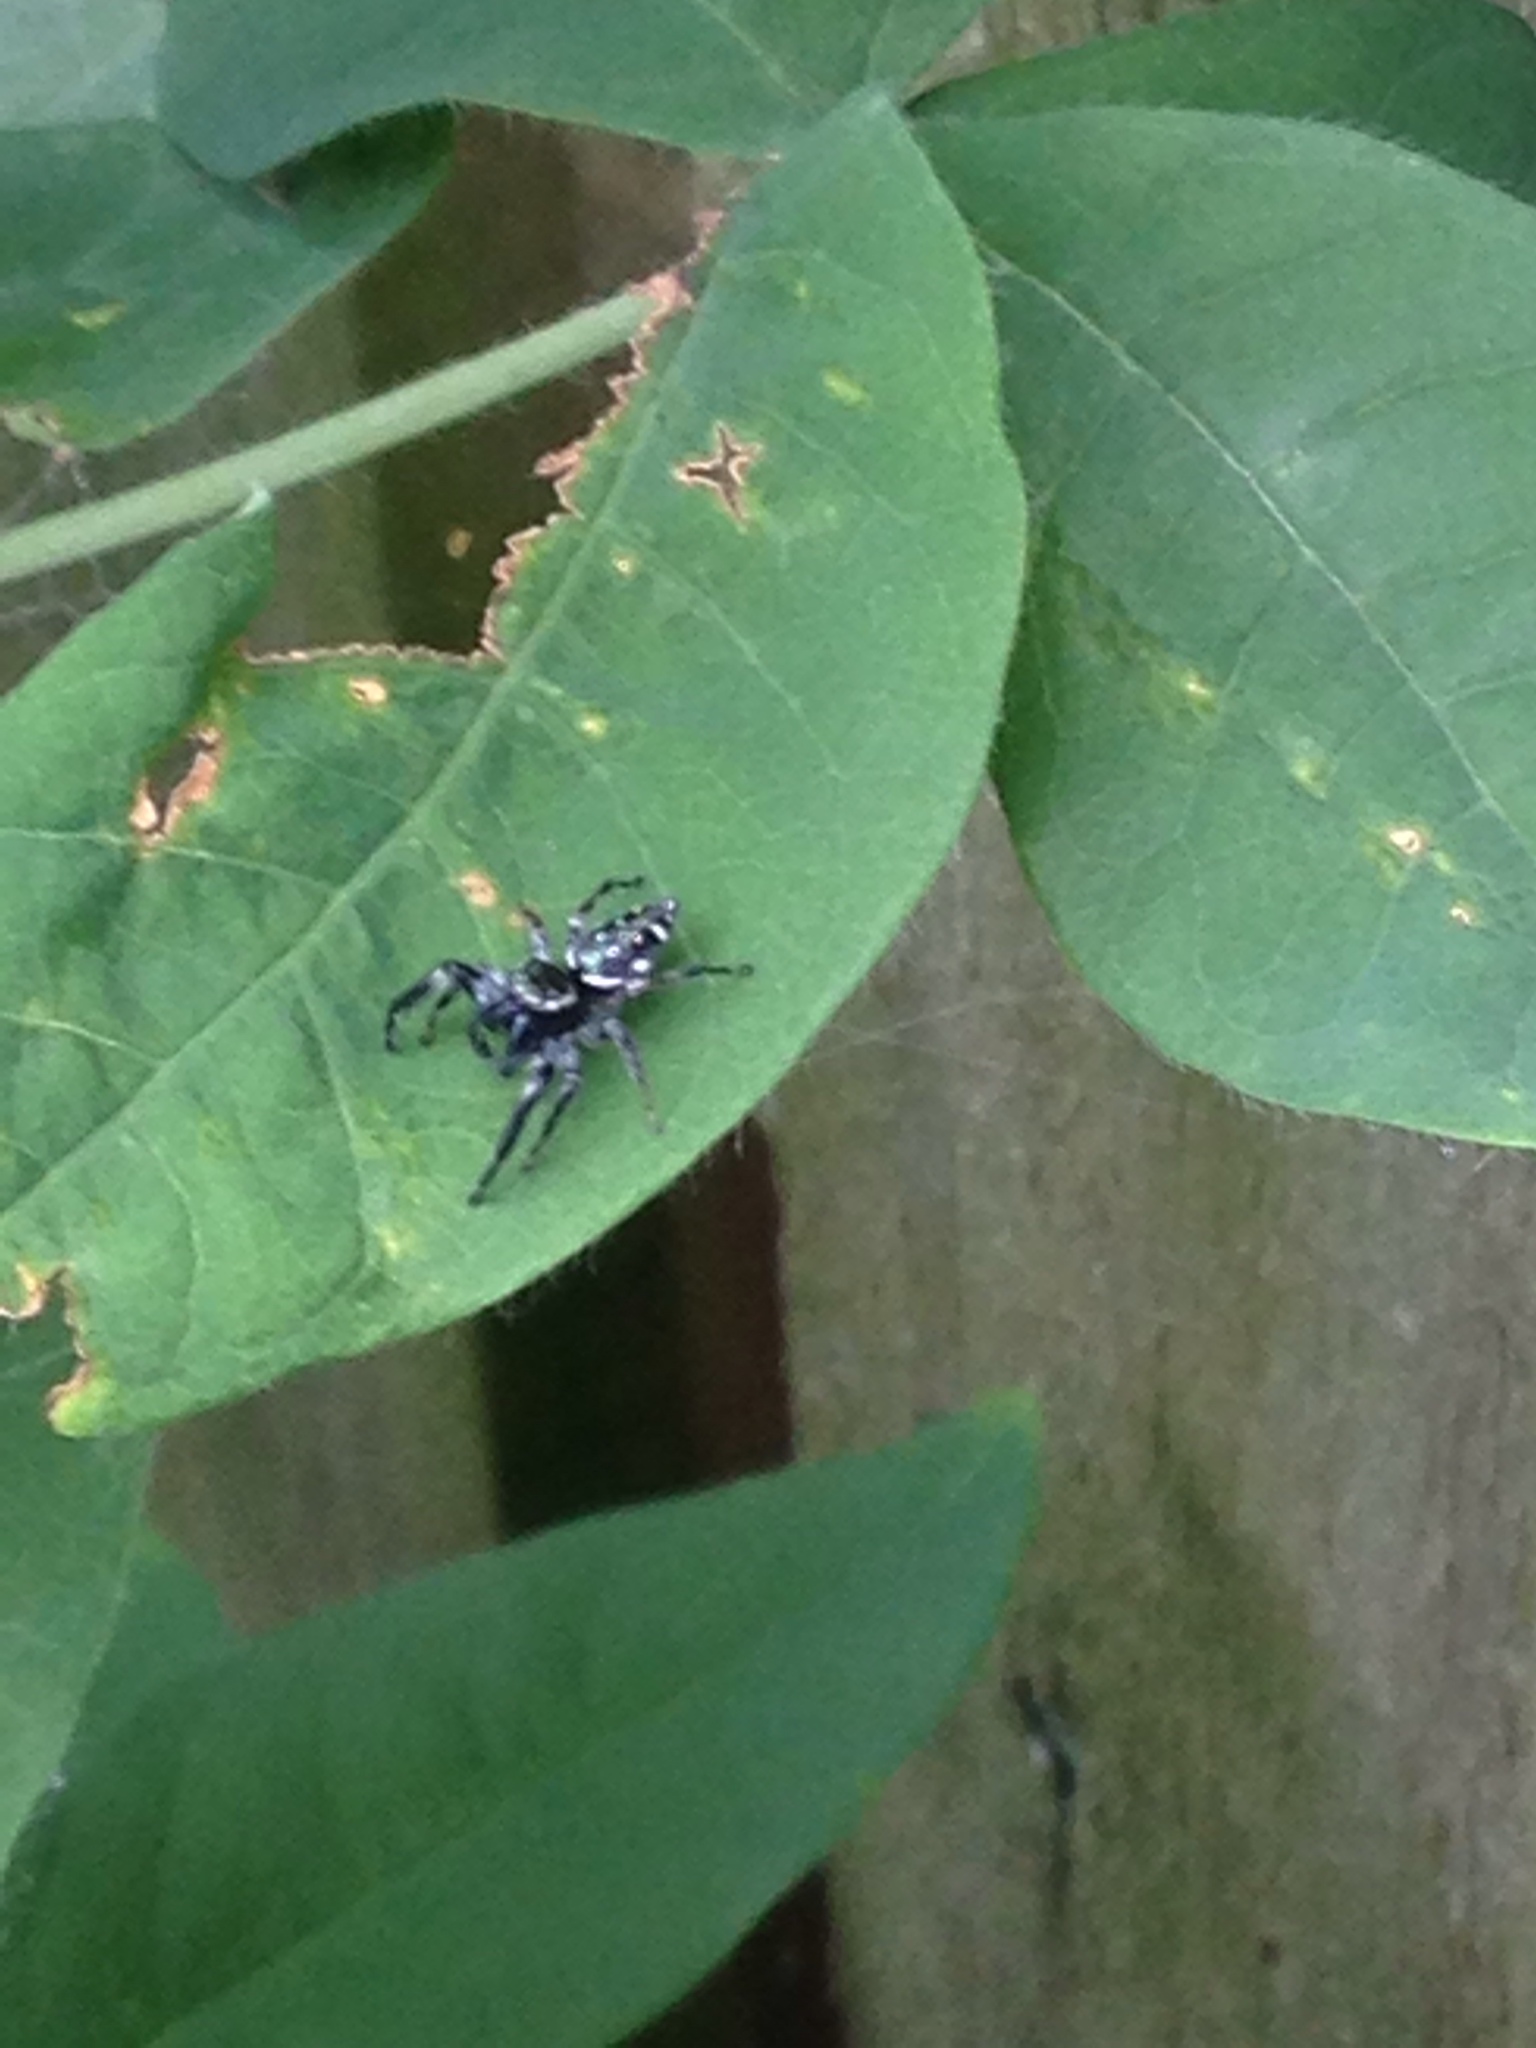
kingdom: Animalia
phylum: Arthropoda
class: Arachnida
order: Araneae
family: Salticidae
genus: Paraphidippus
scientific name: Paraphidippus aurantius
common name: Jumping spiders
